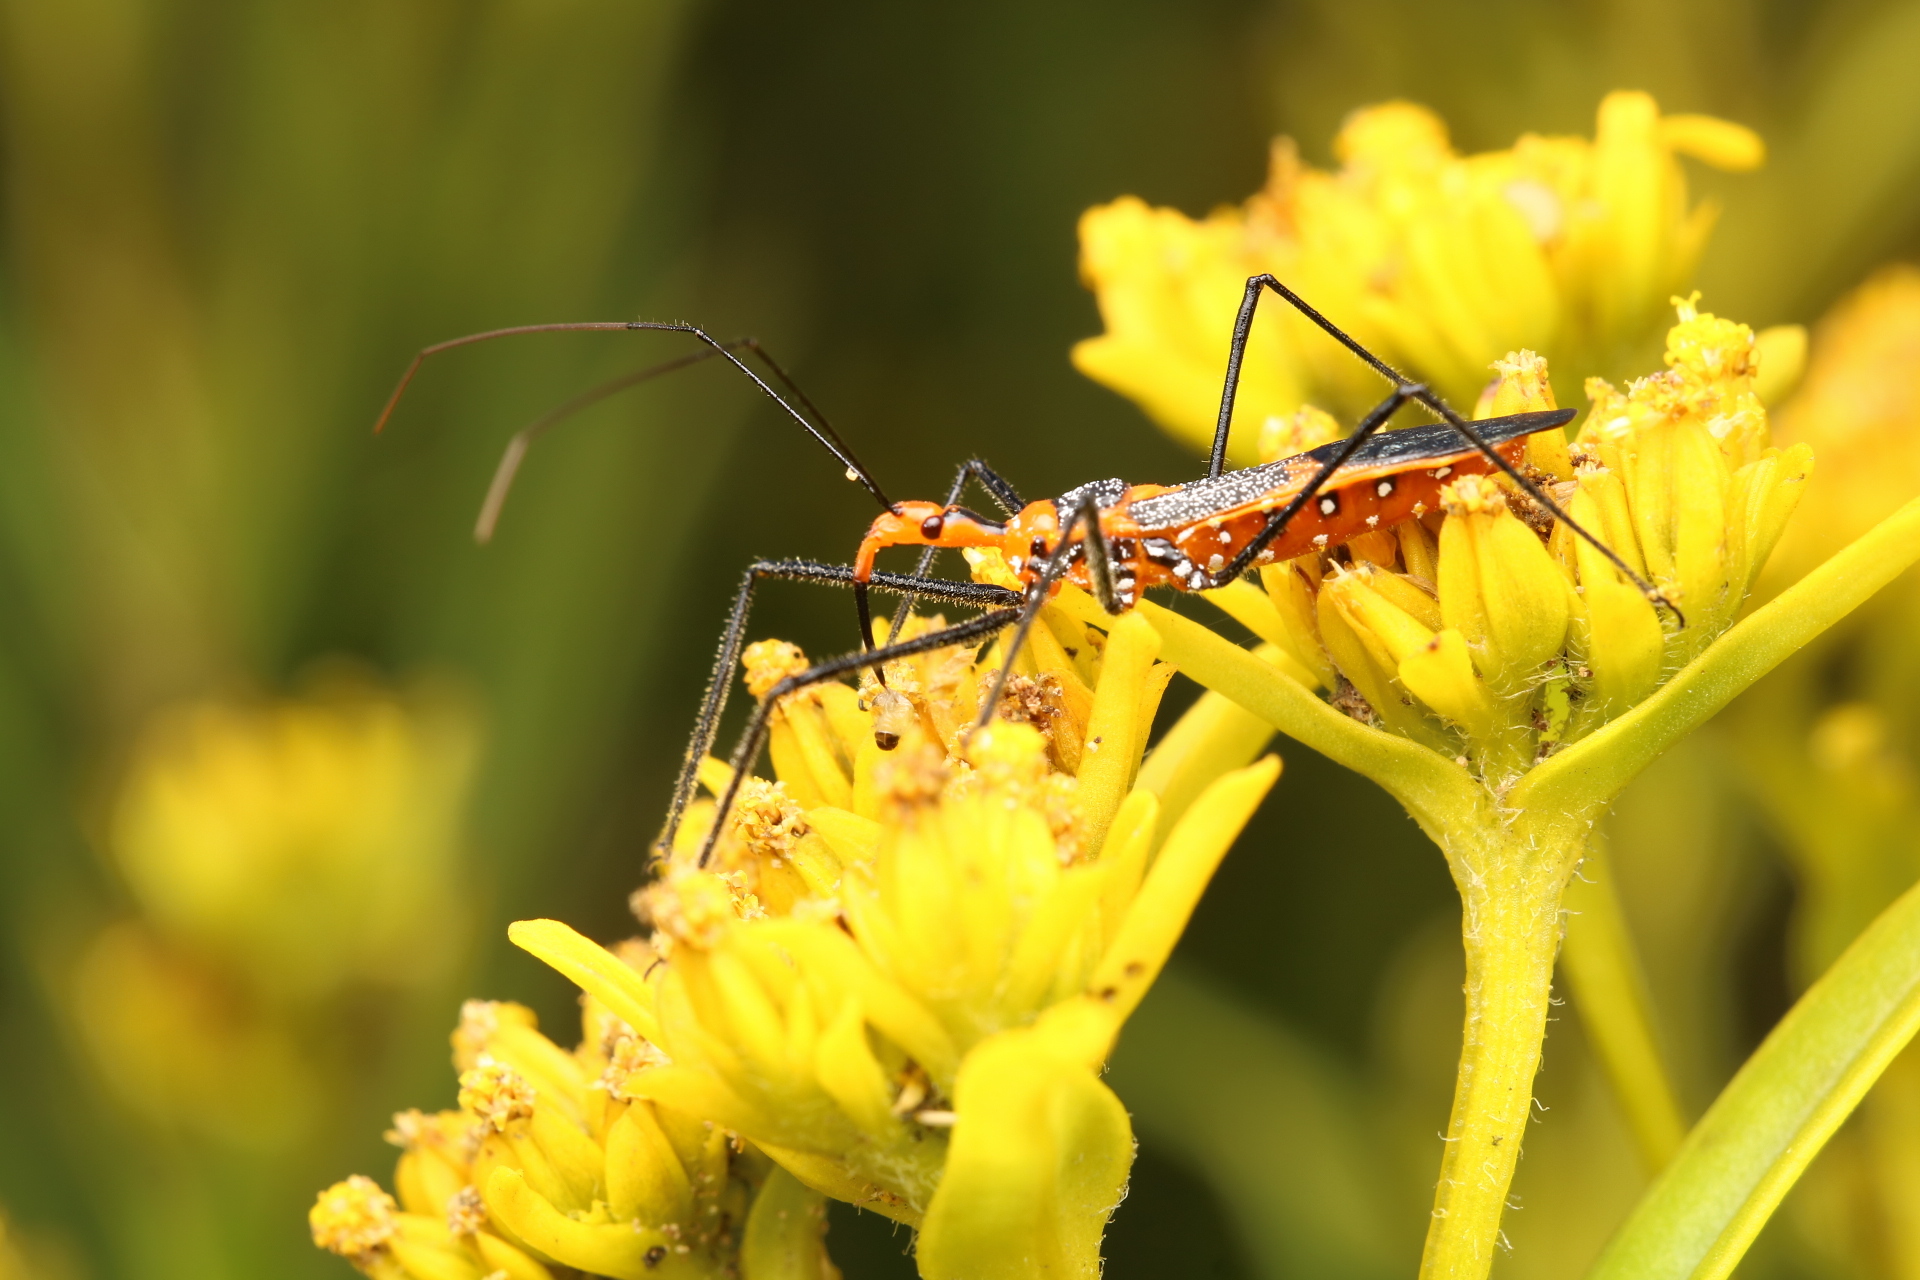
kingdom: Animalia
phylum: Arthropoda
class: Insecta
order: Hemiptera
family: Reduviidae
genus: Zelus
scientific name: Zelus longipes
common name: Milkweed assassin bug
